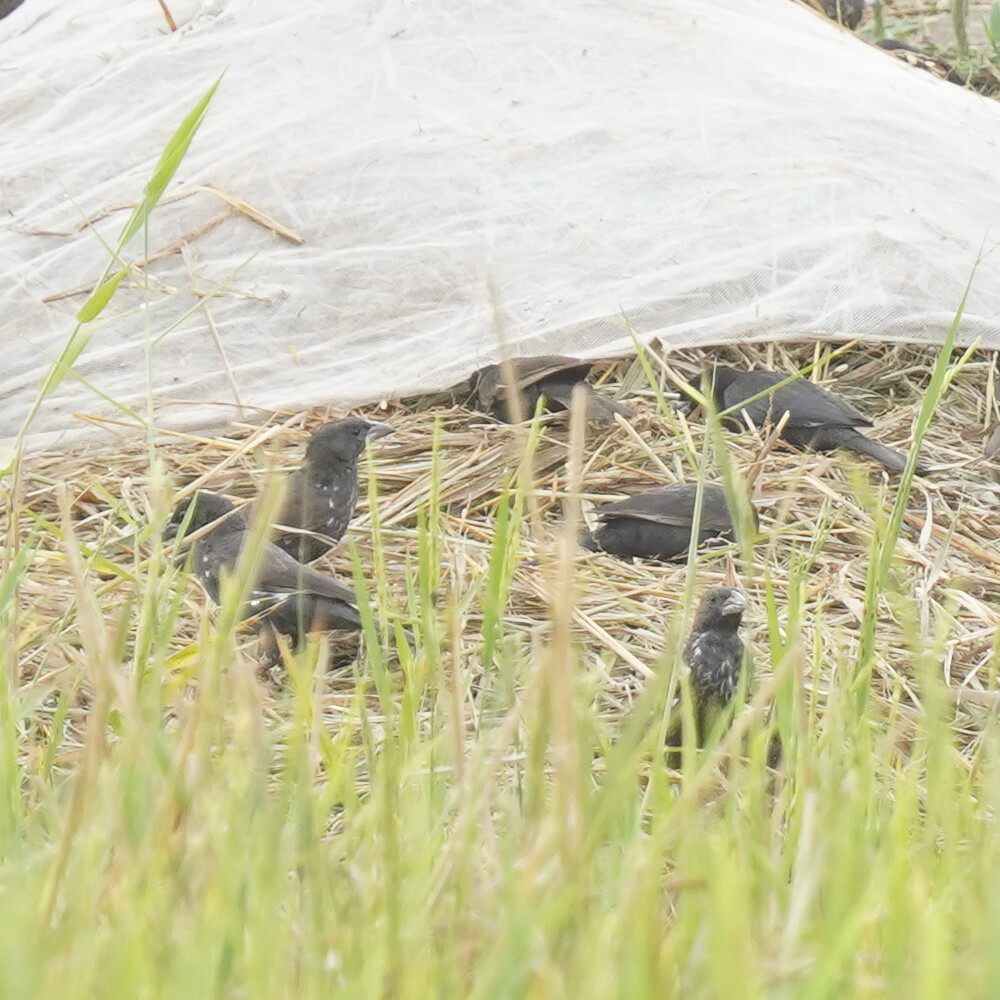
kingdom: Animalia
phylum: Chordata
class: Aves
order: Passeriformes
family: Ploceidae
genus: Bubalornis
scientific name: Bubalornis albirostris
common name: White-billed buffalo weaver
